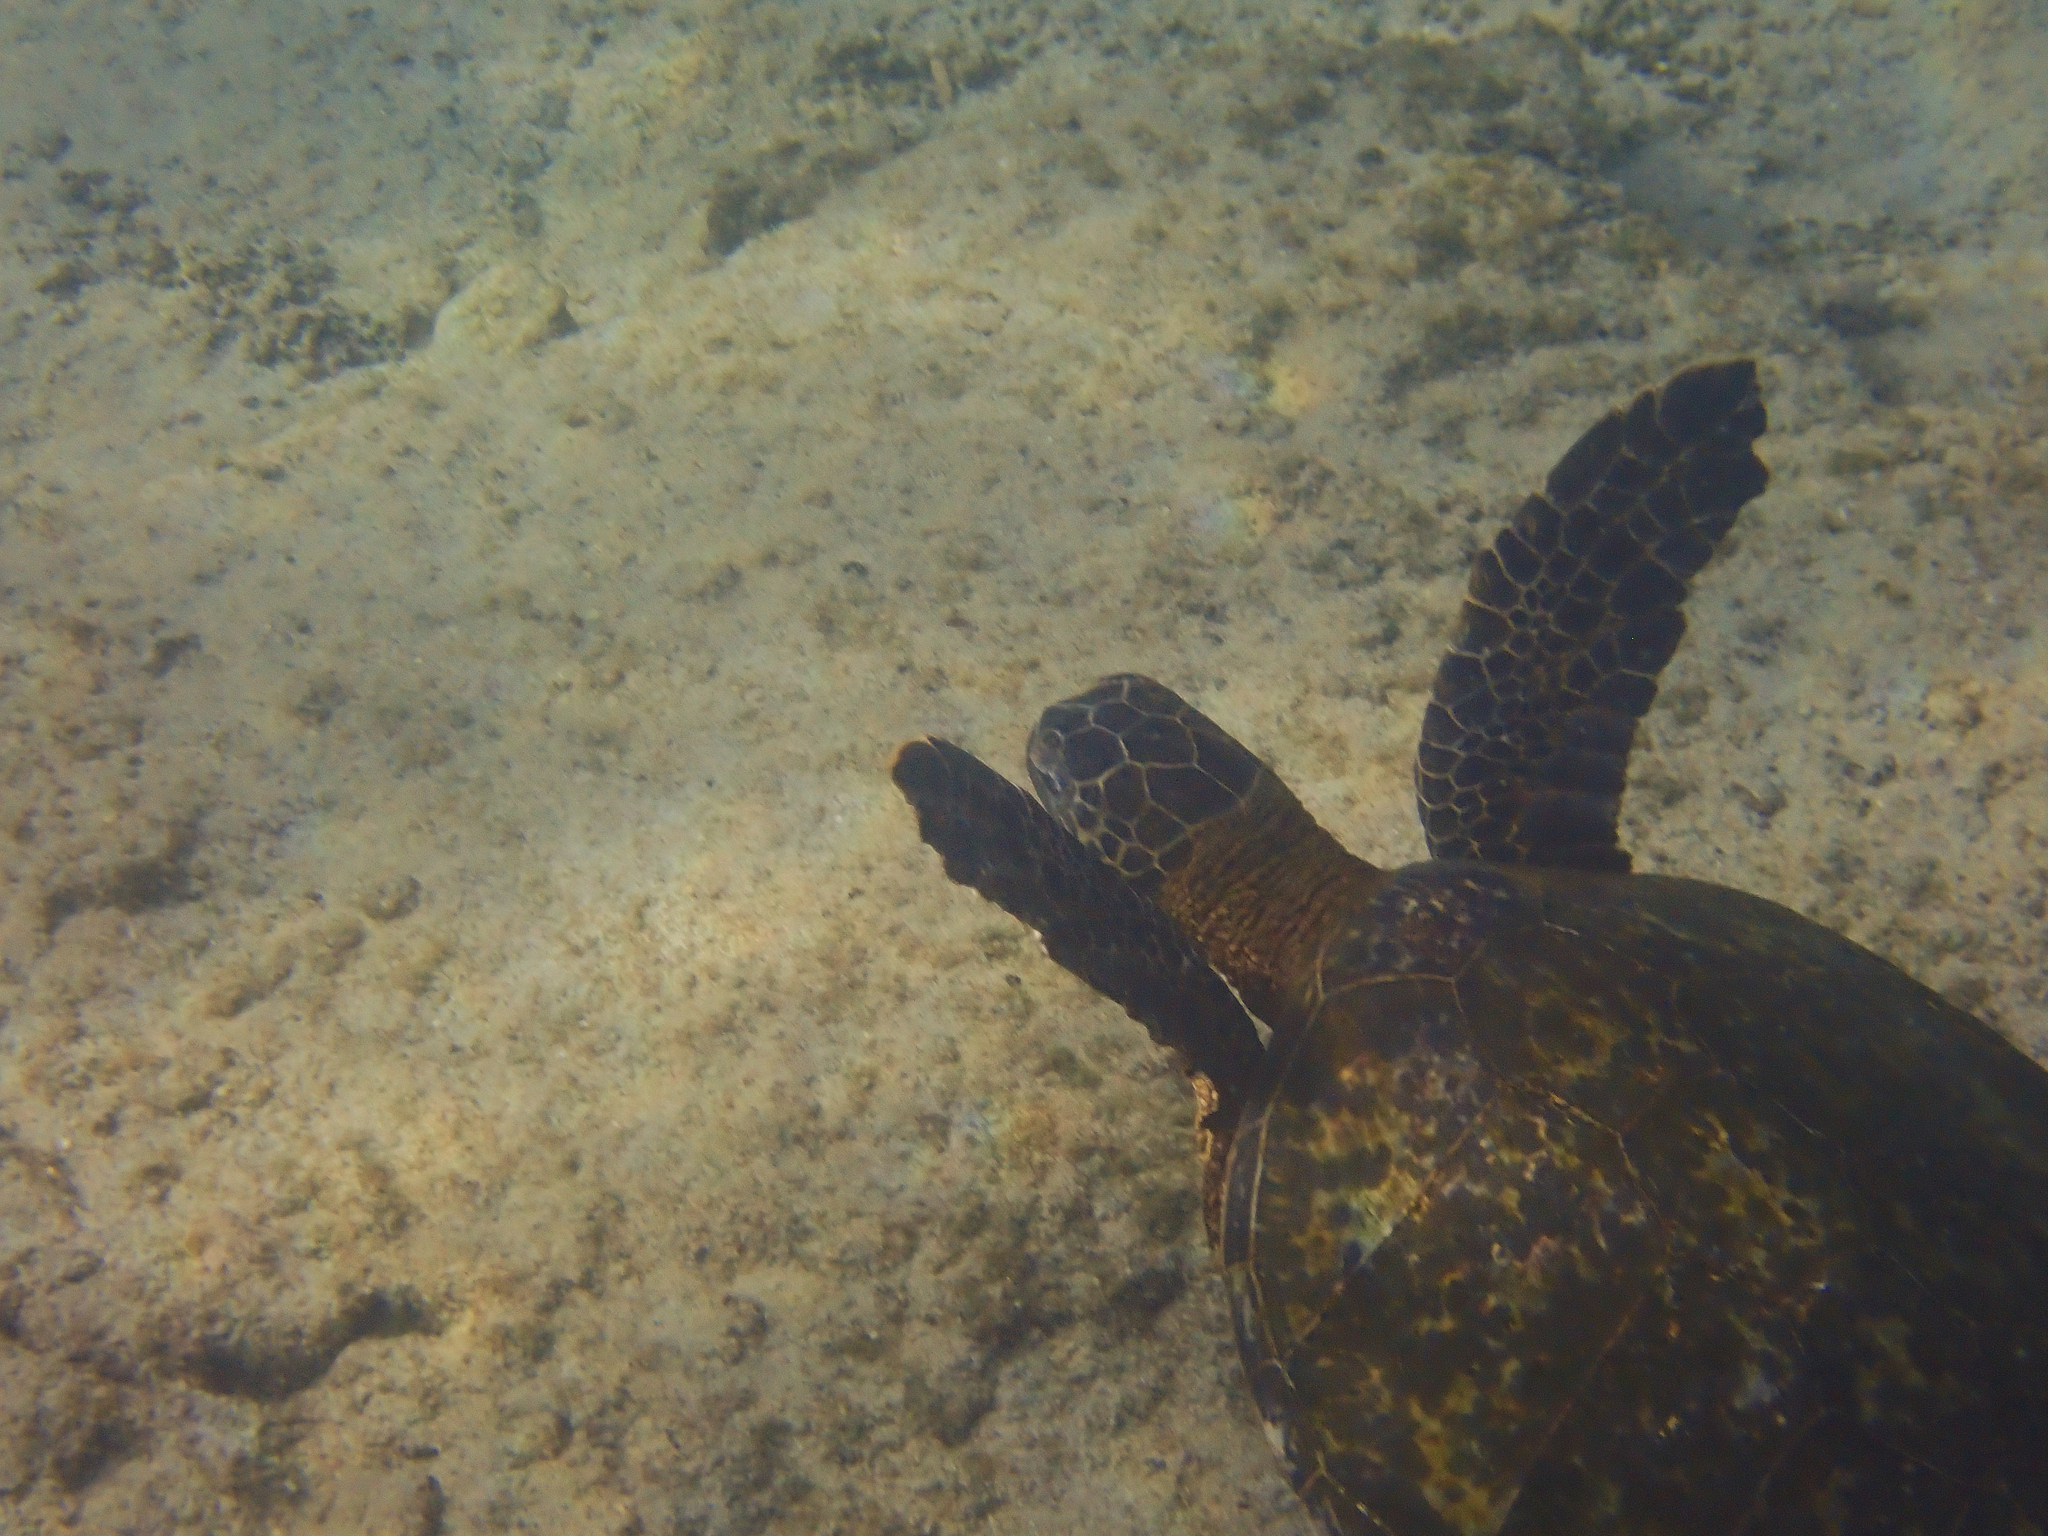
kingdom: Animalia
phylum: Chordata
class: Testudines
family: Cheloniidae
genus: Chelonia
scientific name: Chelonia mydas
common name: Green turtle
